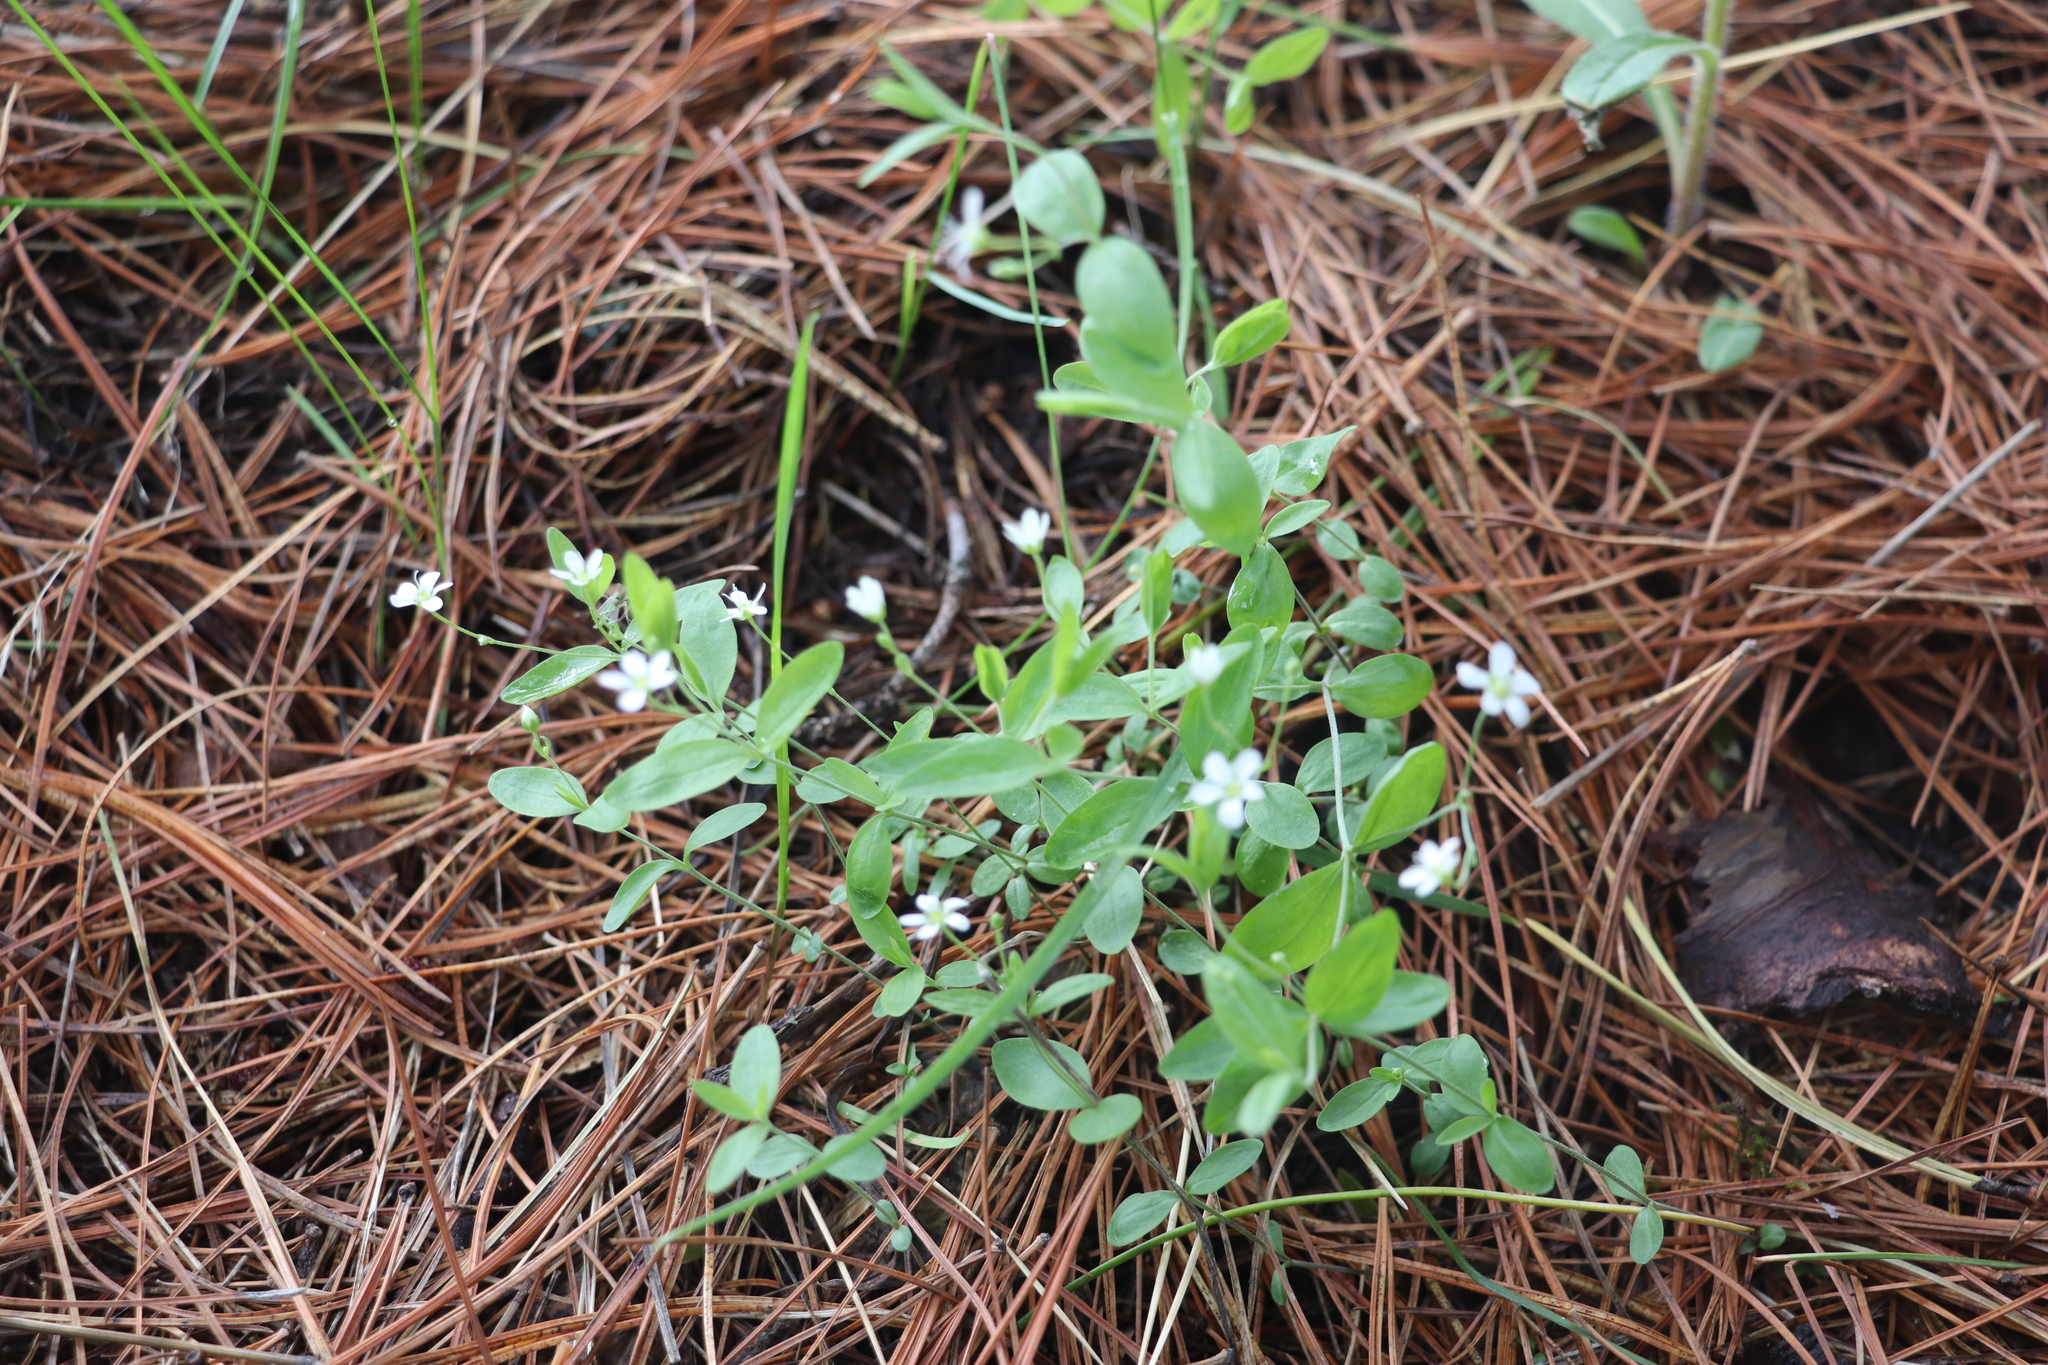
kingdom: Plantae
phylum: Tracheophyta
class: Magnoliopsida
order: Caryophyllales
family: Caryophyllaceae
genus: Moehringia
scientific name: Moehringia lateriflora
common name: Blunt-leaved sandwort
